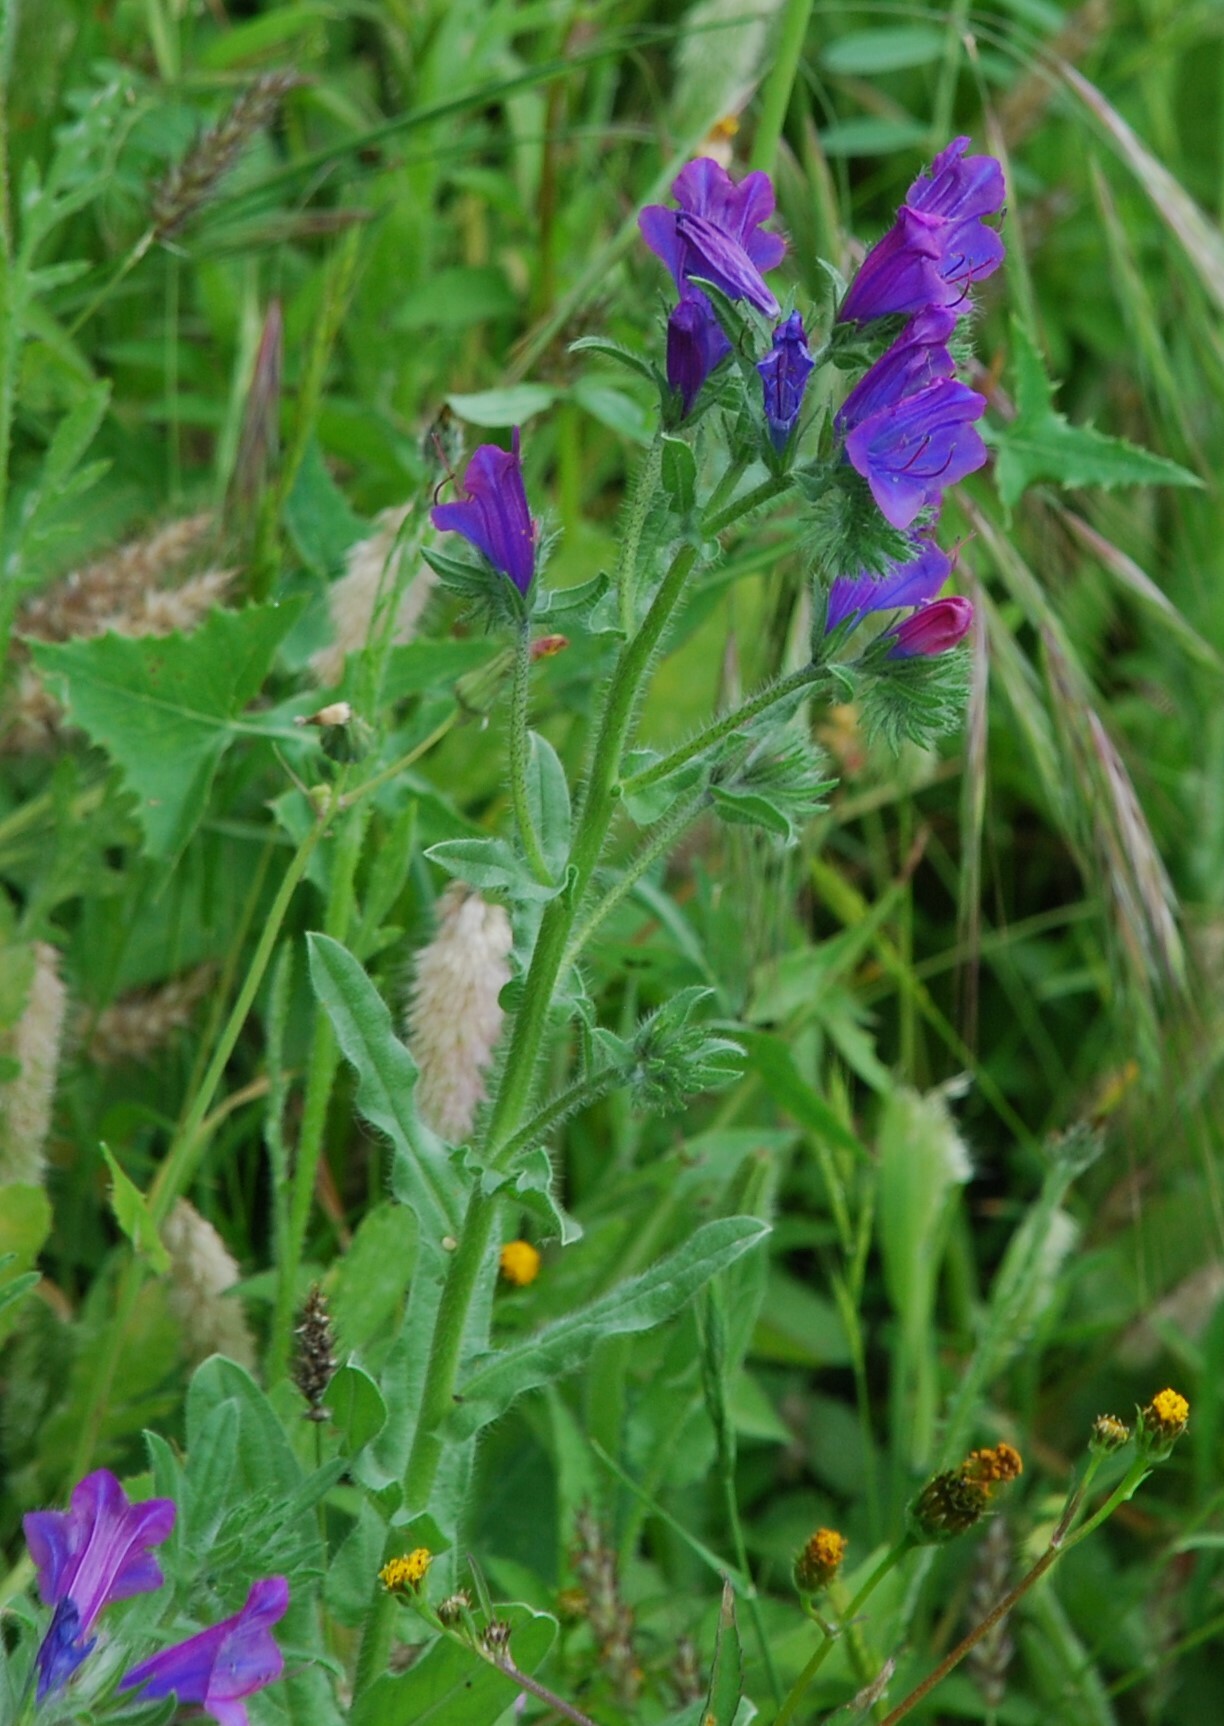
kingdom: Plantae
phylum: Tracheophyta
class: Magnoliopsida
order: Boraginales
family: Boraginaceae
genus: Echium
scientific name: Echium plantagineum
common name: Purple viper's-bugloss
